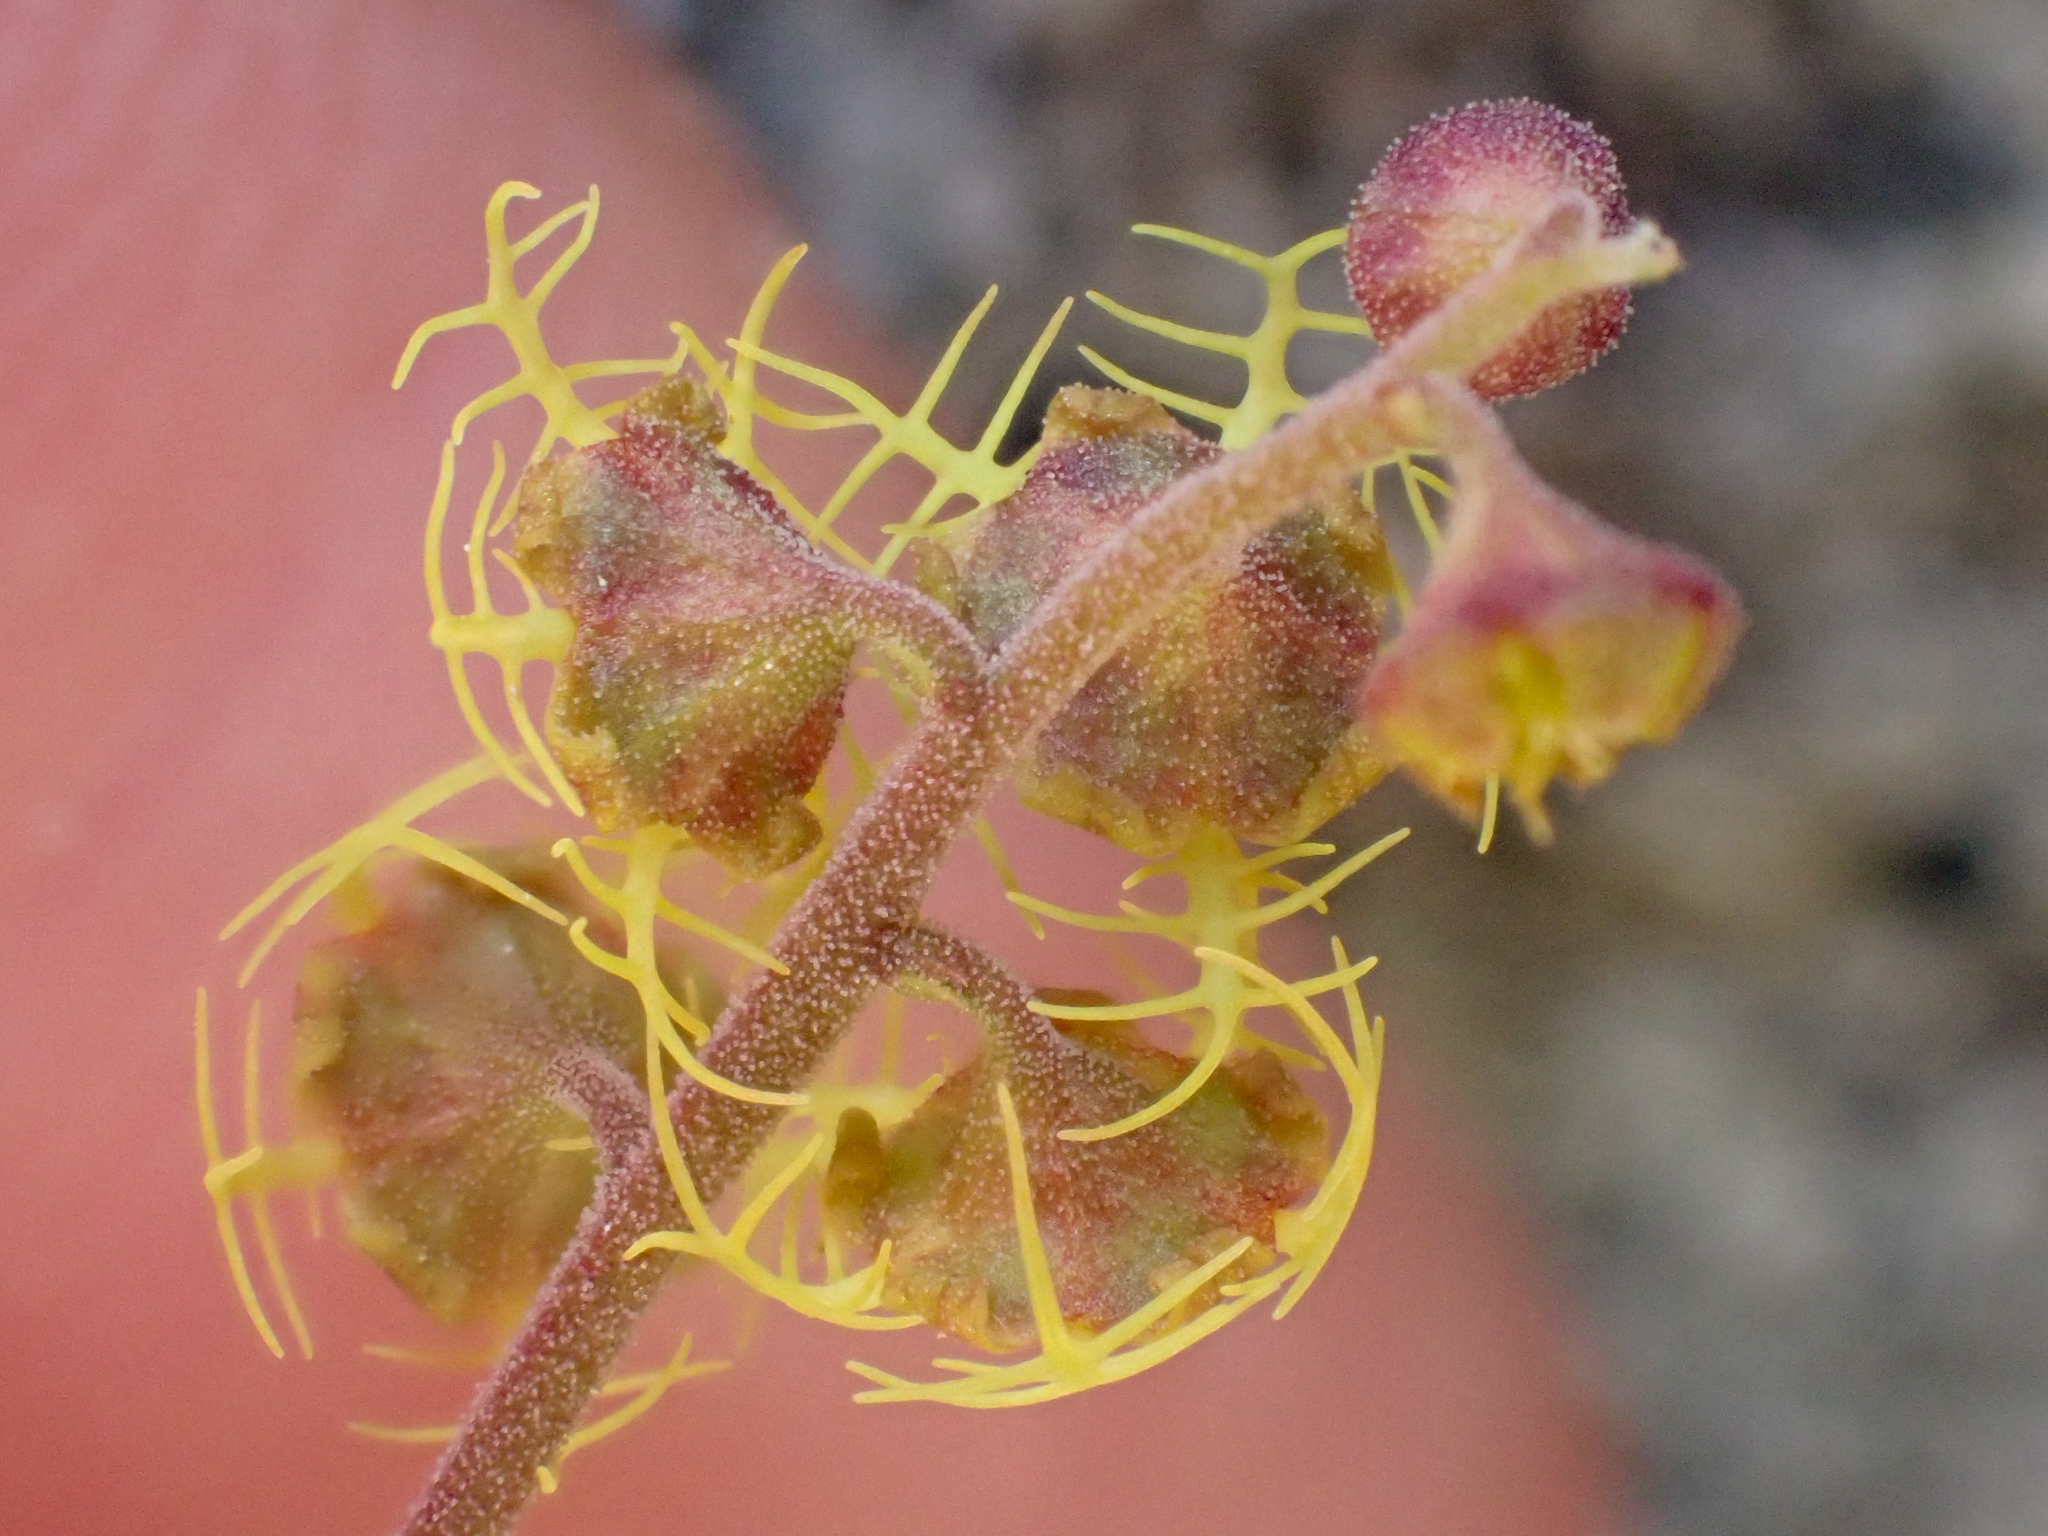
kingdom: Plantae
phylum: Tracheophyta
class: Magnoliopsida
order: Saxifragales
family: Saxifragaceae
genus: Pectiantia
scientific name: Pectiantia pentandra
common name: Alpine bishop's-cap
